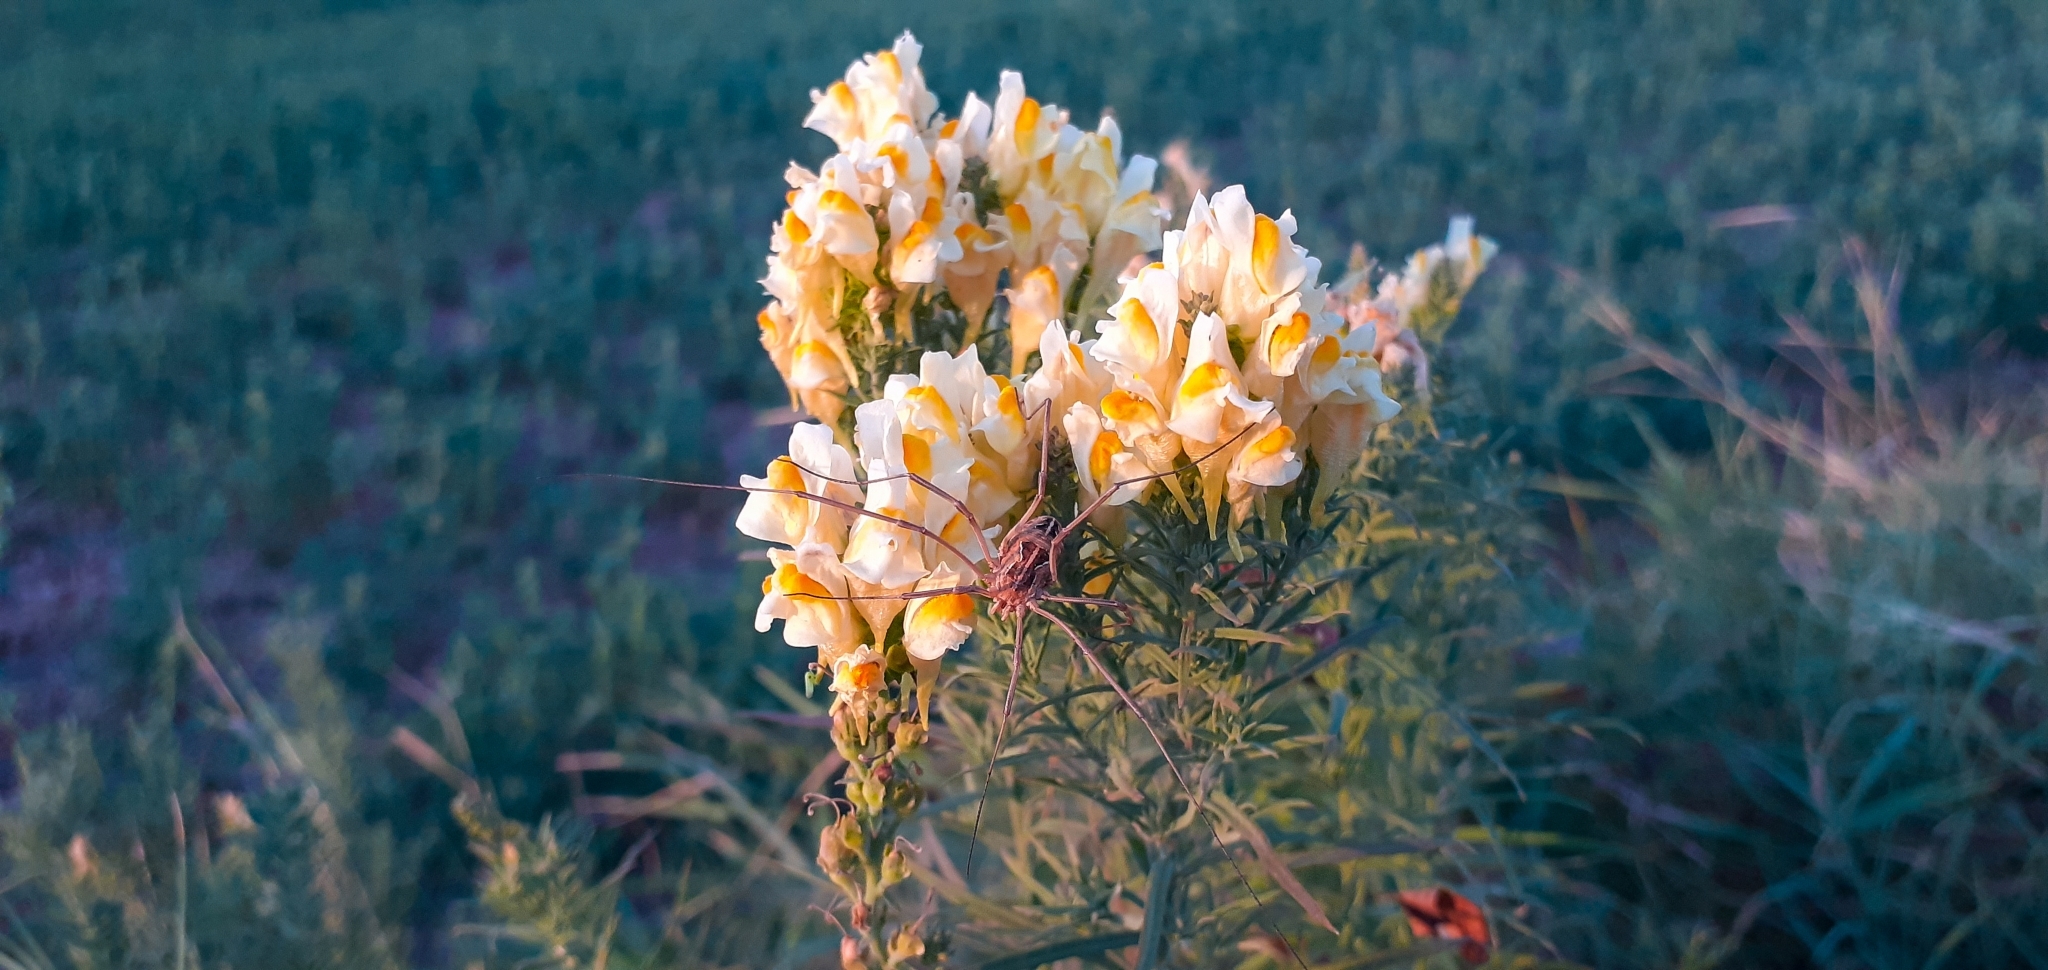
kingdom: Animalia
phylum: Arthropoda
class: Arachnida
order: Opiliones
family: Phalangiidae
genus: Metaphalangium
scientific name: Metaphalangium cirtanum
